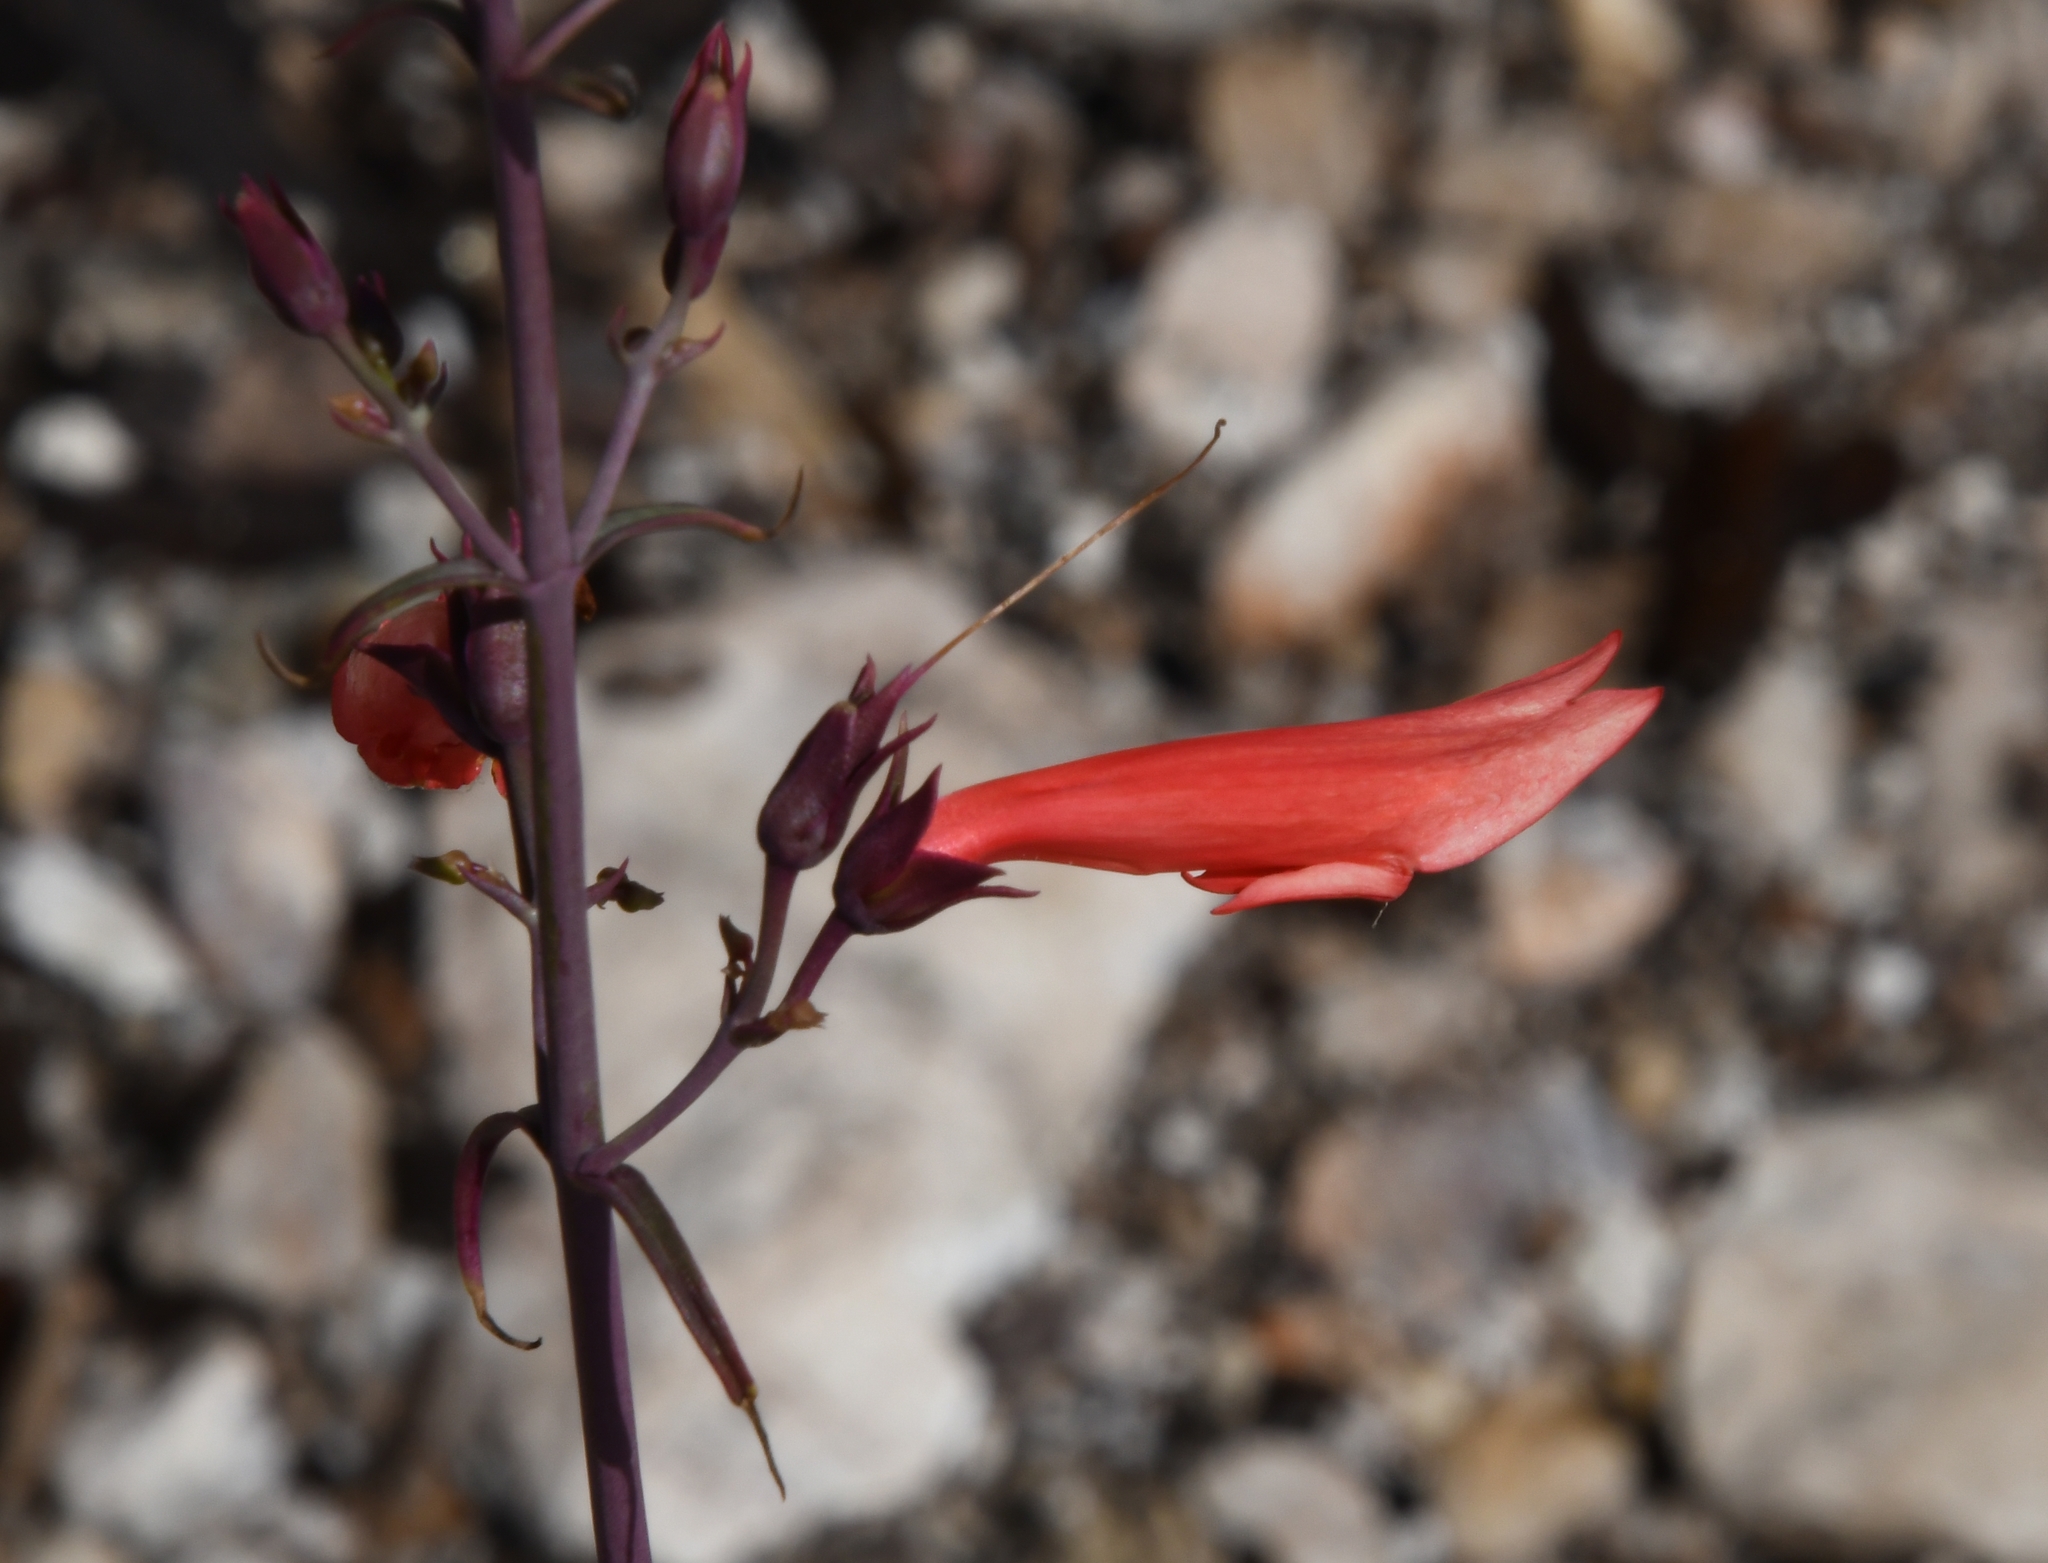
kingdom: Plantae
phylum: Tracheophyta
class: Magnoliopsida
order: Lamiales
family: Plantaginaceae
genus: Penstemon
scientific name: Penstemon barbatus
